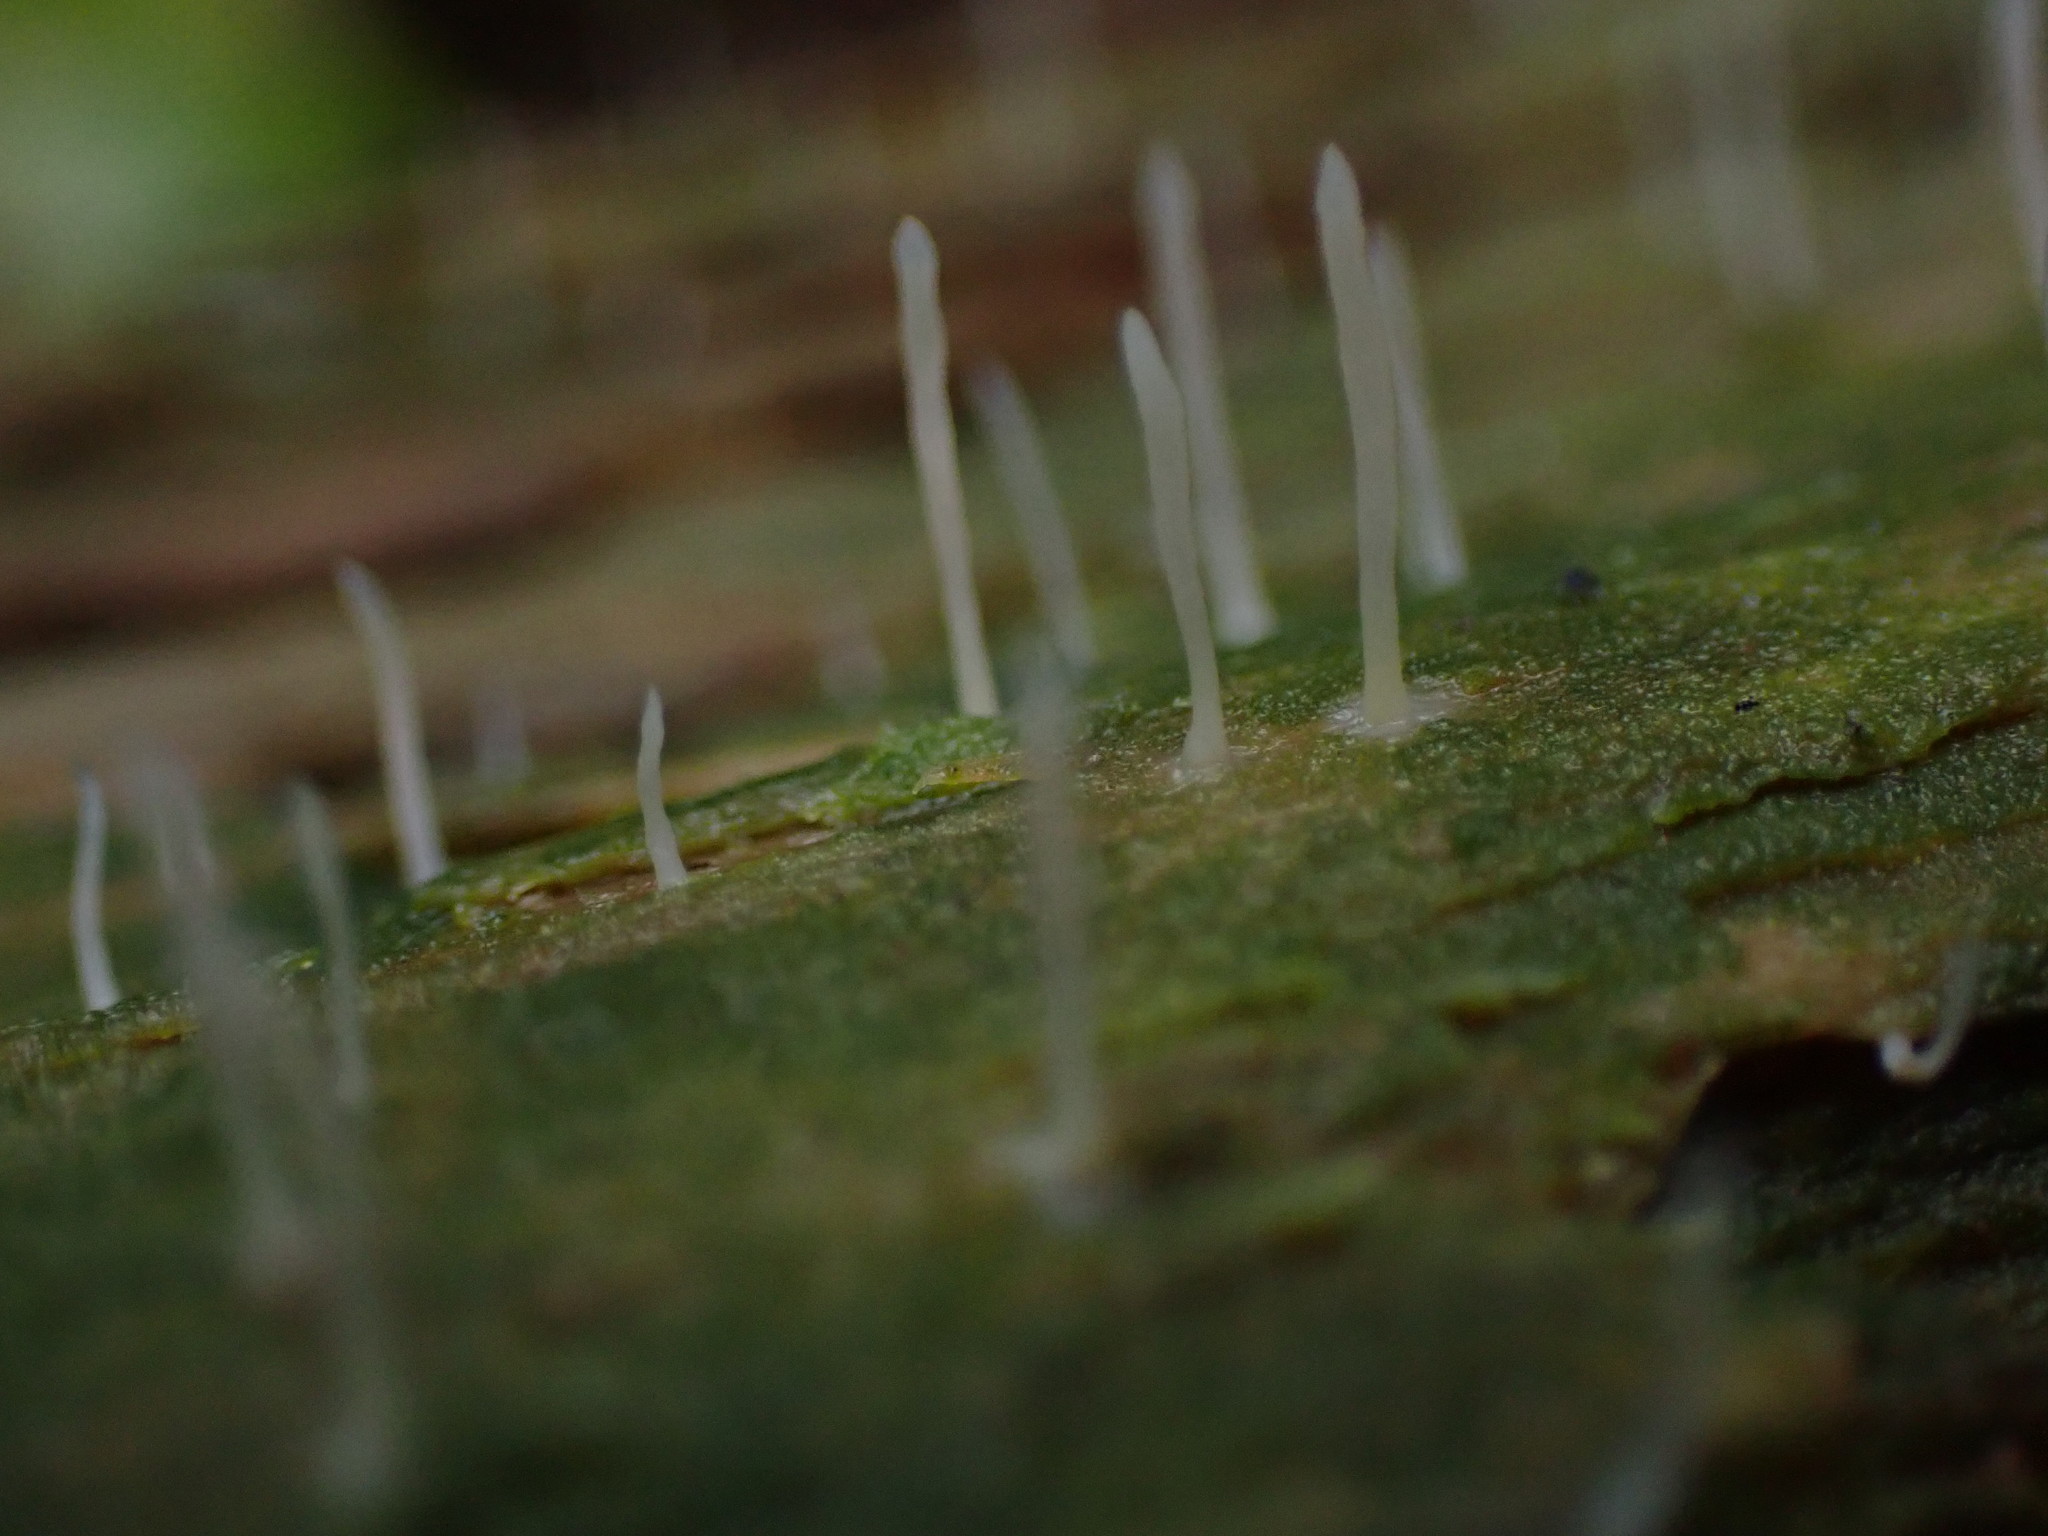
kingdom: Fungi
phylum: Basidiomycota
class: Agaricomycetes
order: Cantharellales
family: Hydnaceae
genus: Multiclavula
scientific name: Multiclavula mucida
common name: White green-algae coral
